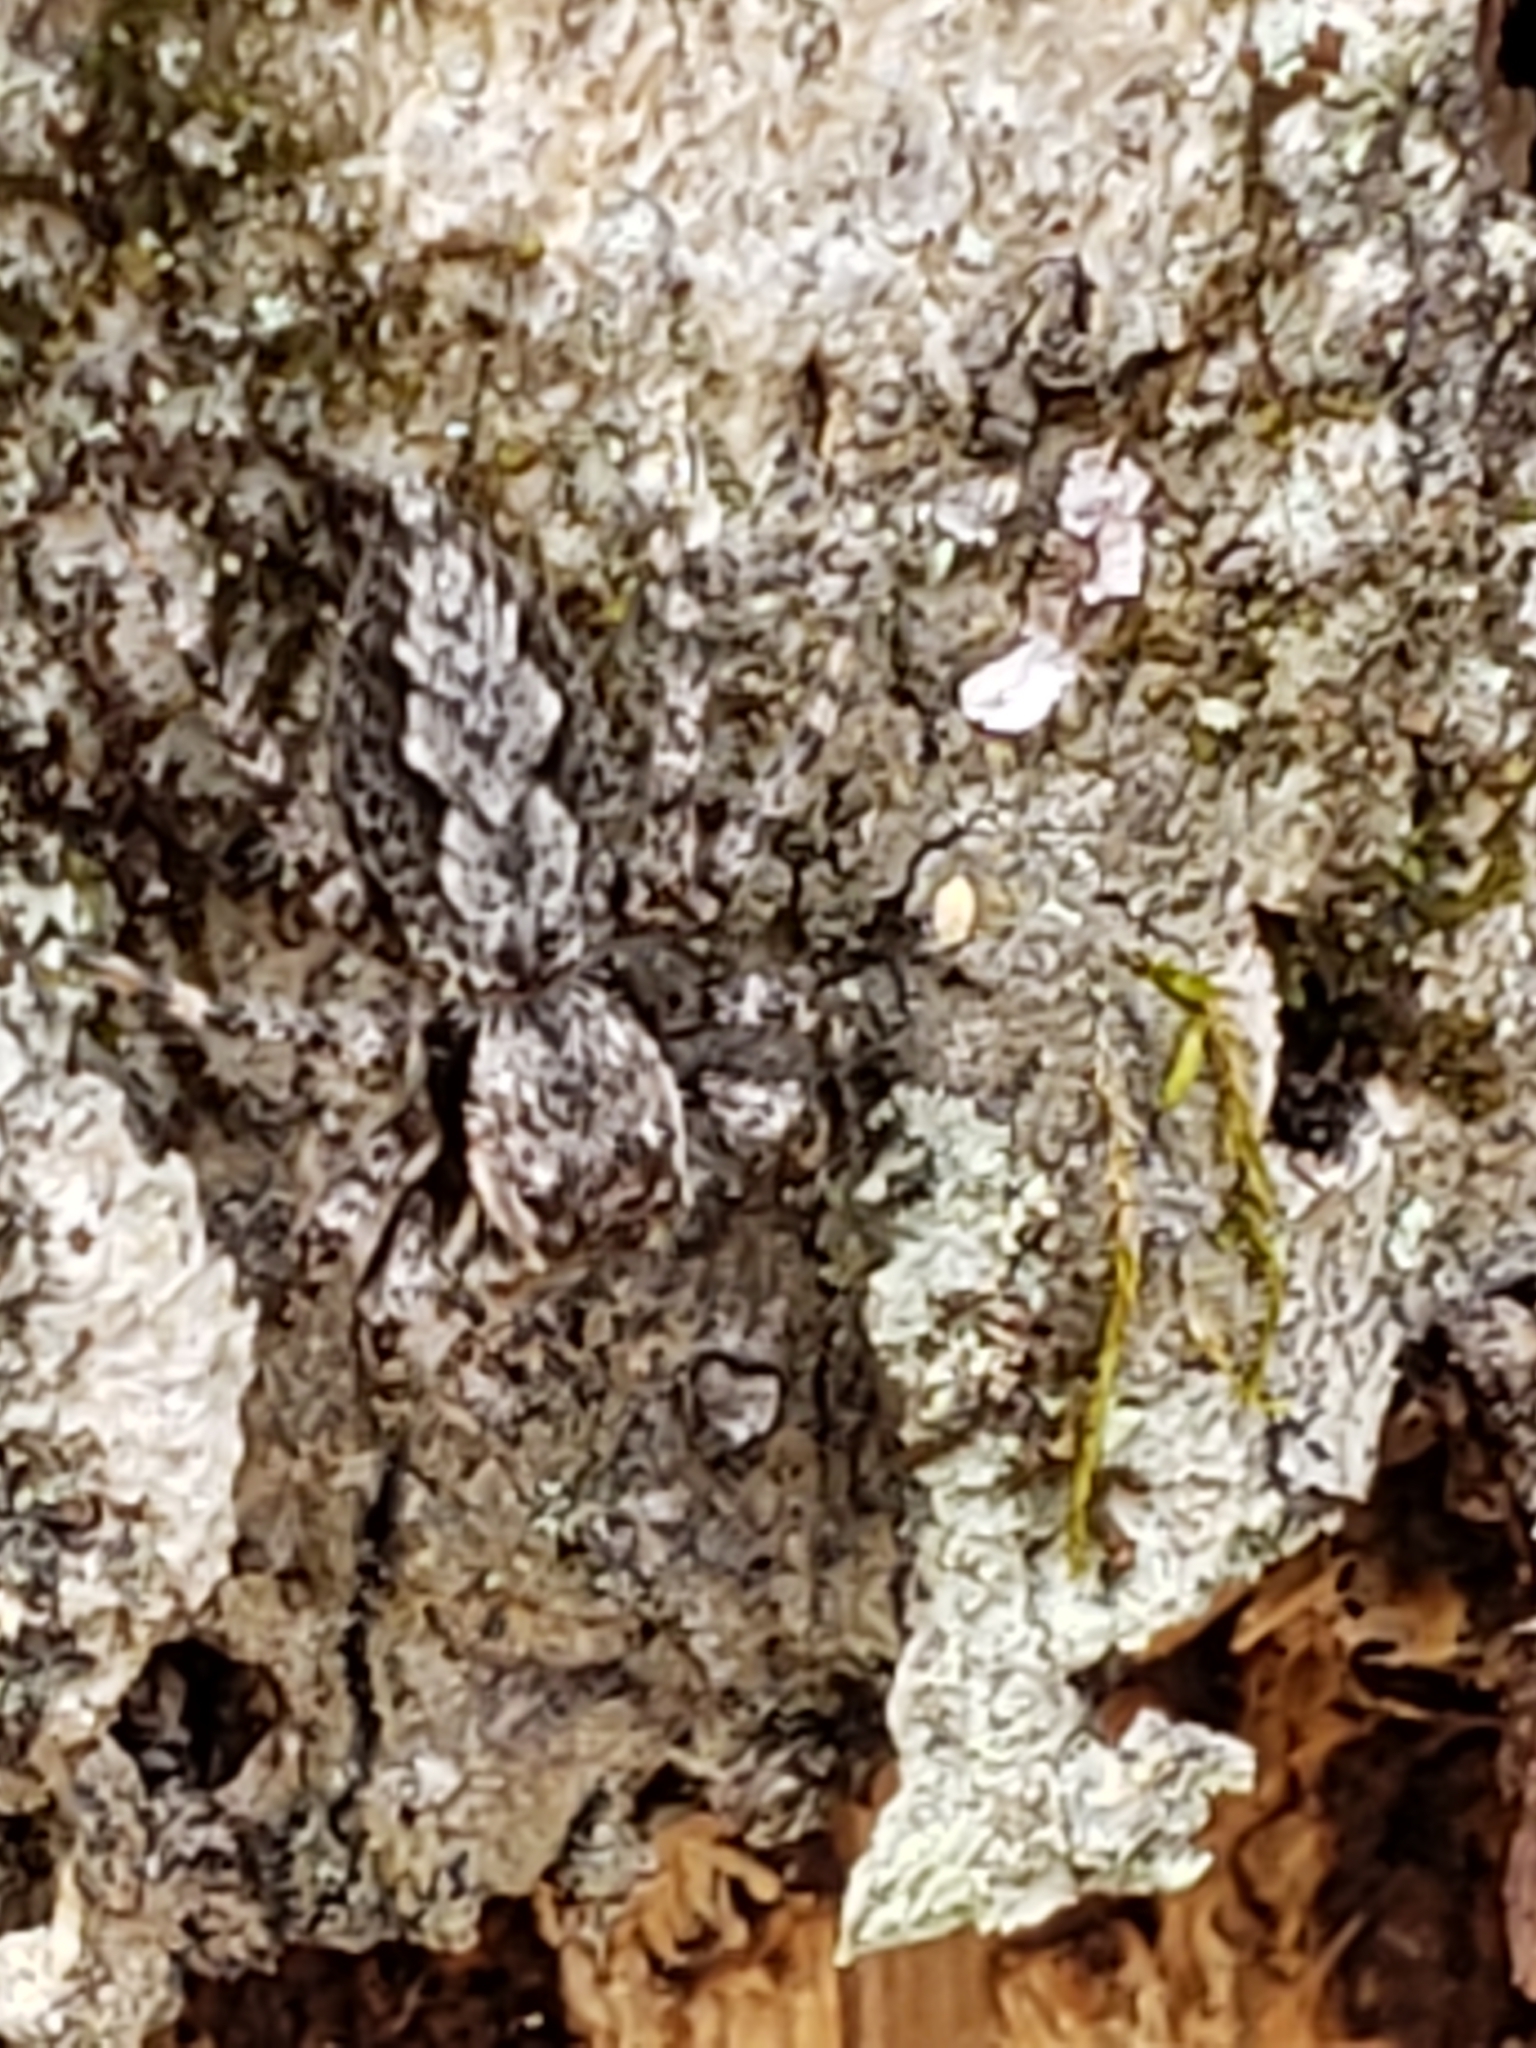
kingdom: Animalia
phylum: Arthropoda
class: Arachnida
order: Araneae
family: Salticidae
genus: Platycryptus
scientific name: Platycryptus undatus
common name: Tan jumping spider
